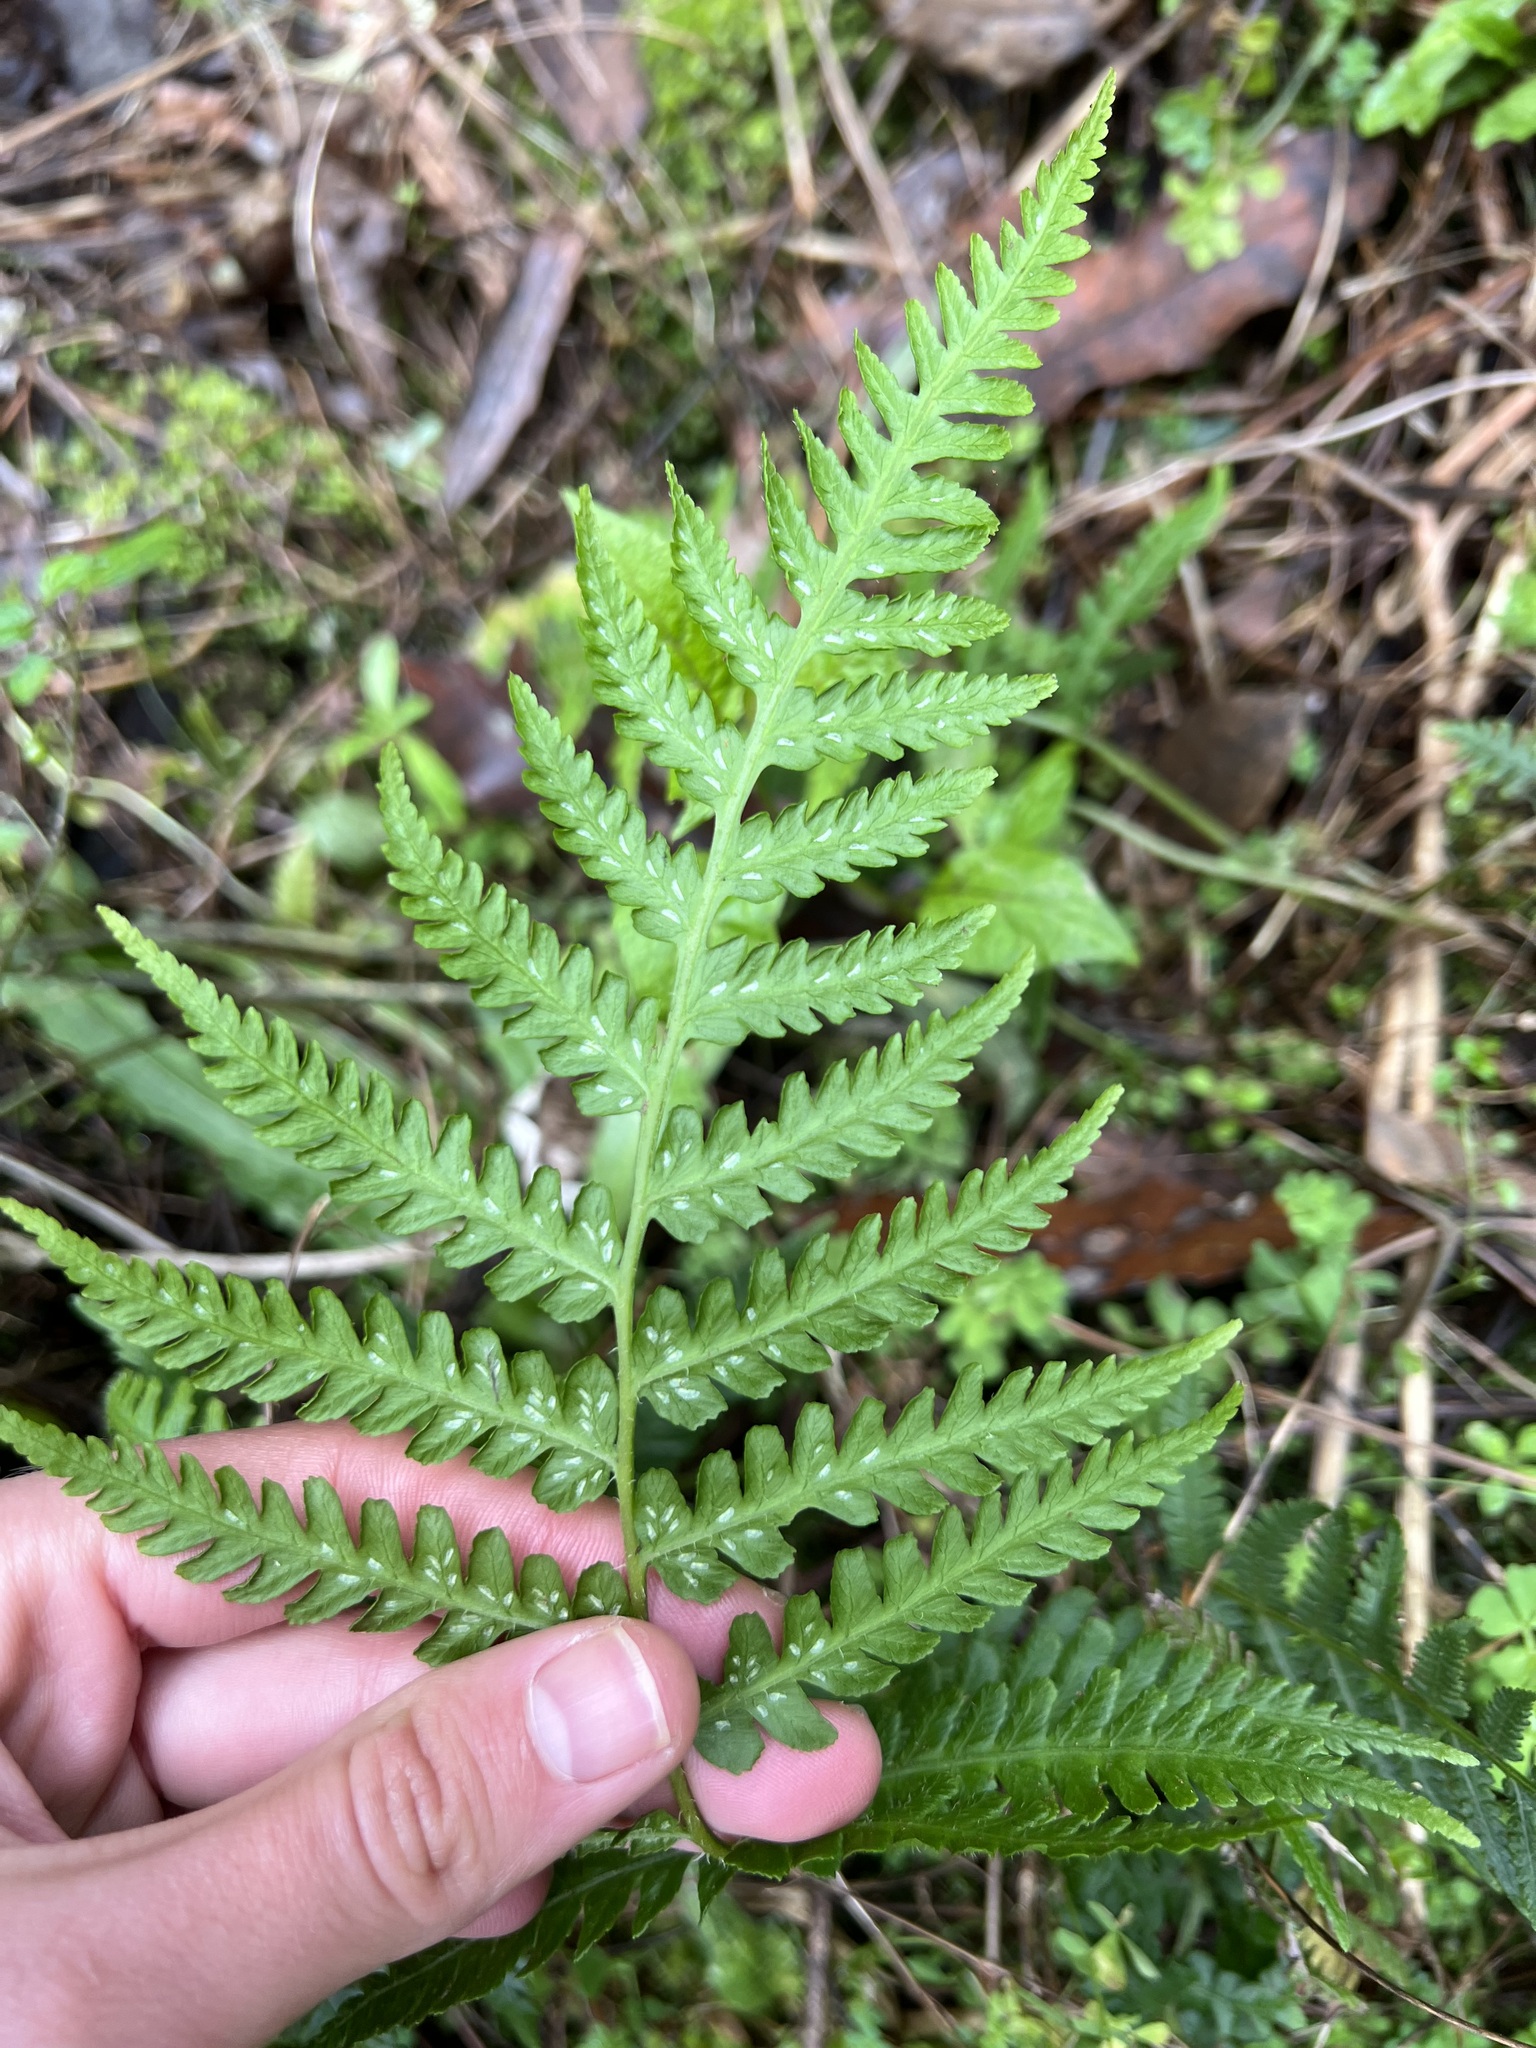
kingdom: Plantae
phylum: Tracheophyta
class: Polypodiopsida
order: Polypodiales
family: Athyriaceae
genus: Diplazium
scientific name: Diplazium congruum
